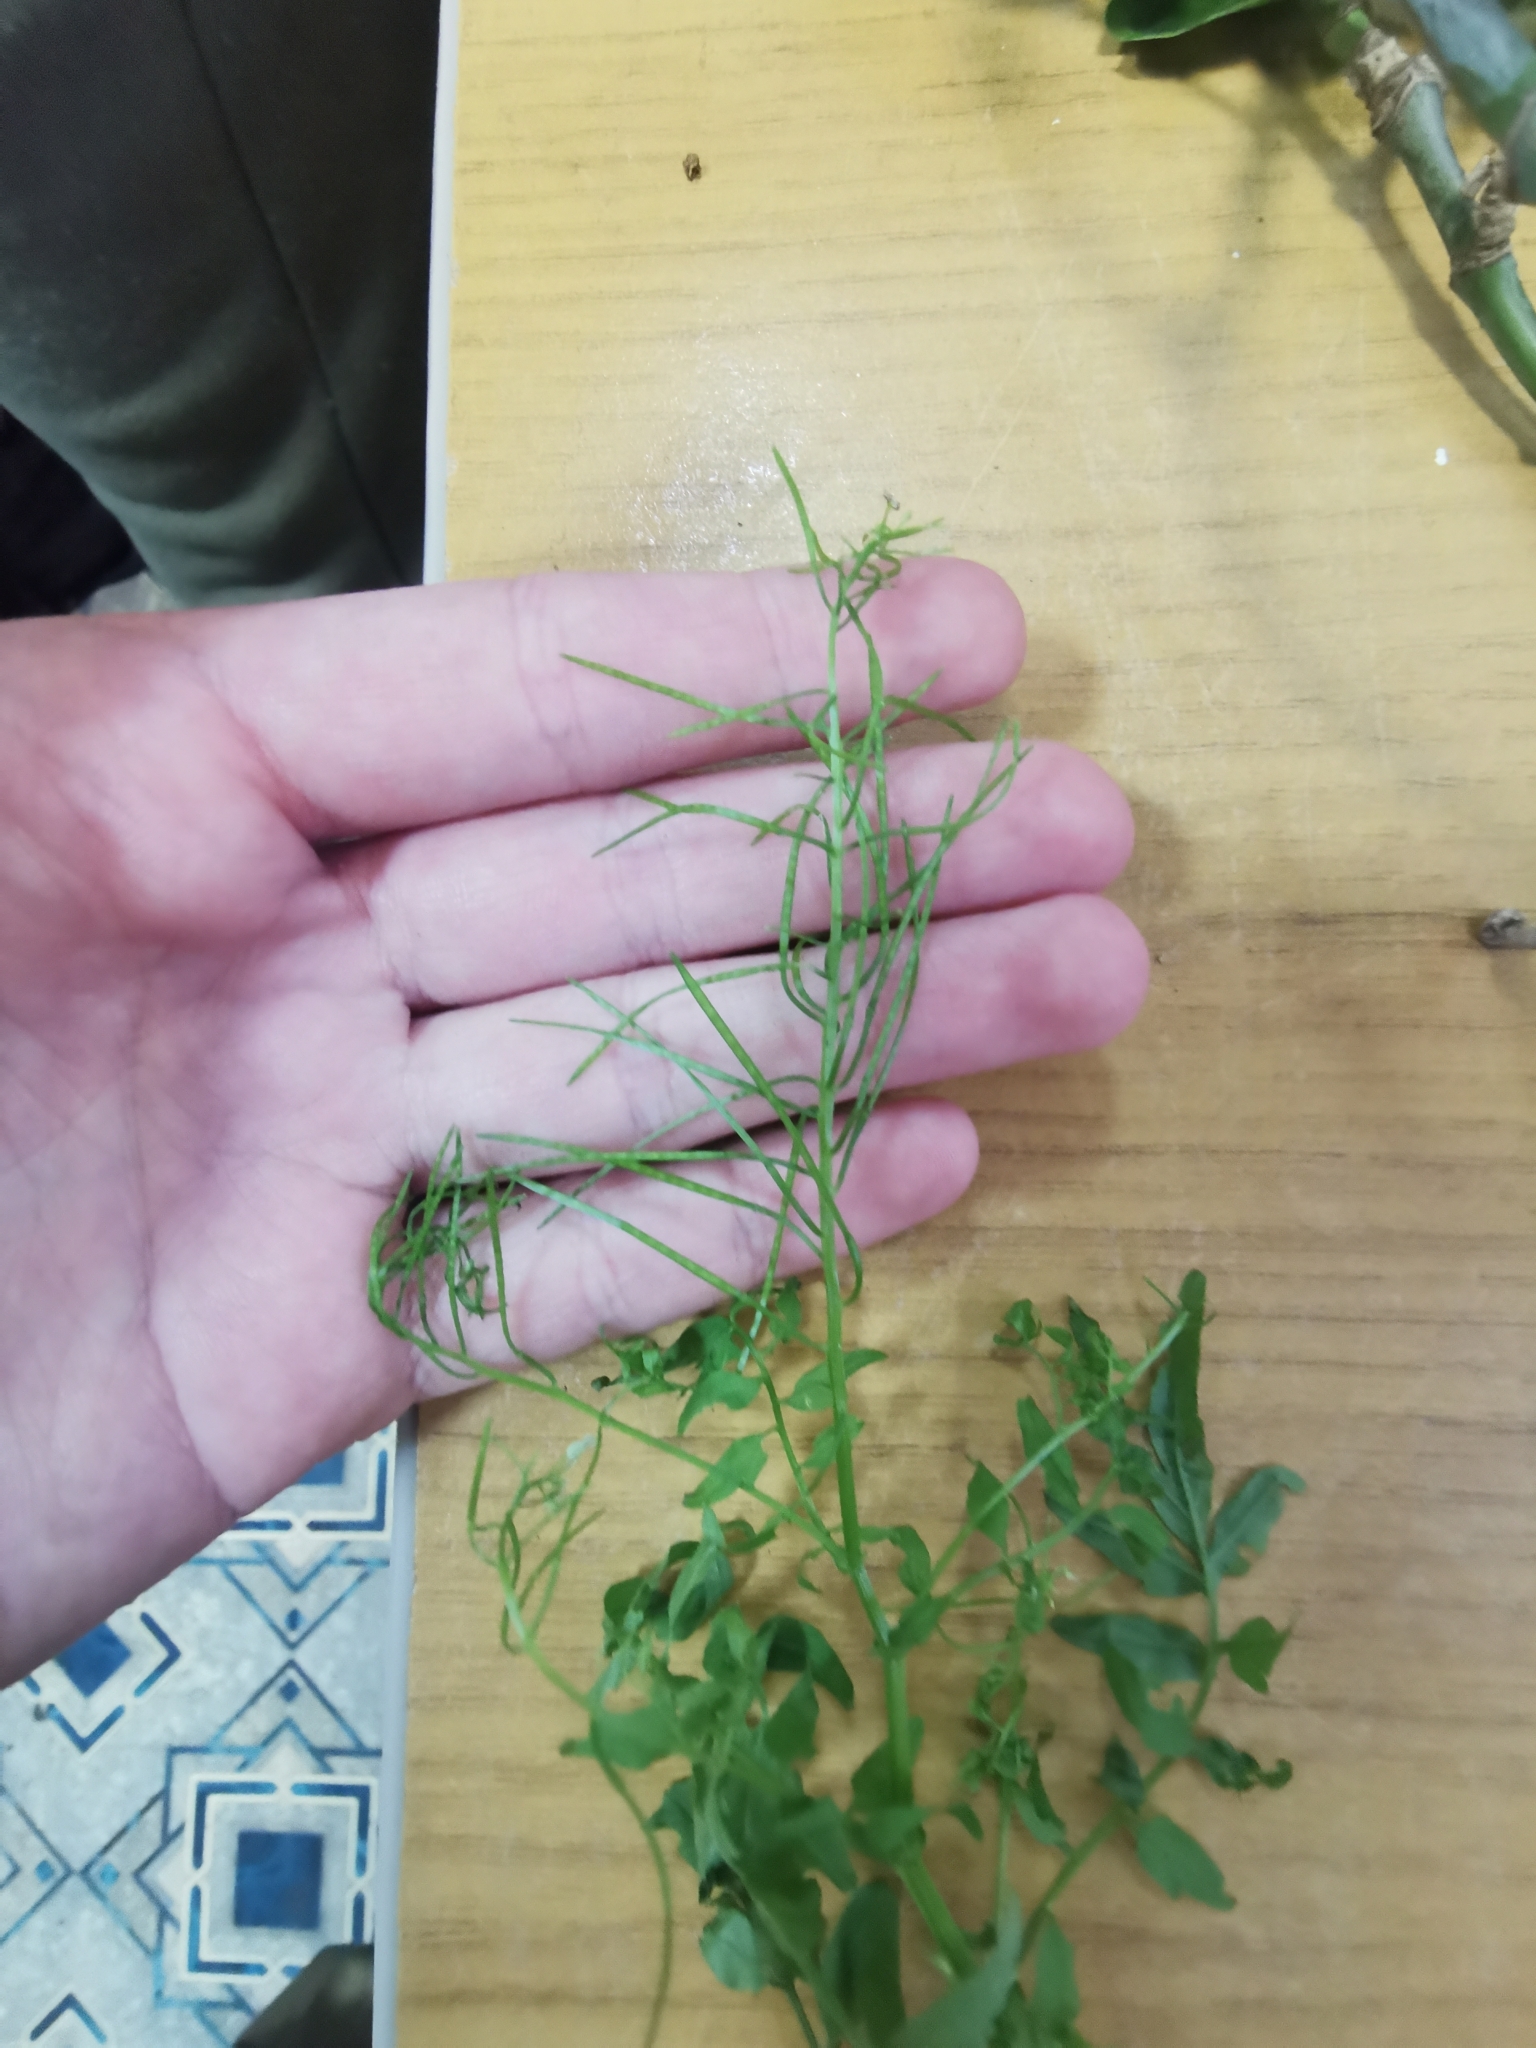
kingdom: Plantae
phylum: Tracheophyta
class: Magnoliopsida
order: Brassicales
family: Brassicaceae
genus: Cardamine
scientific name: Cardamine impatiens
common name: Narrow-leaved bitter-cress
